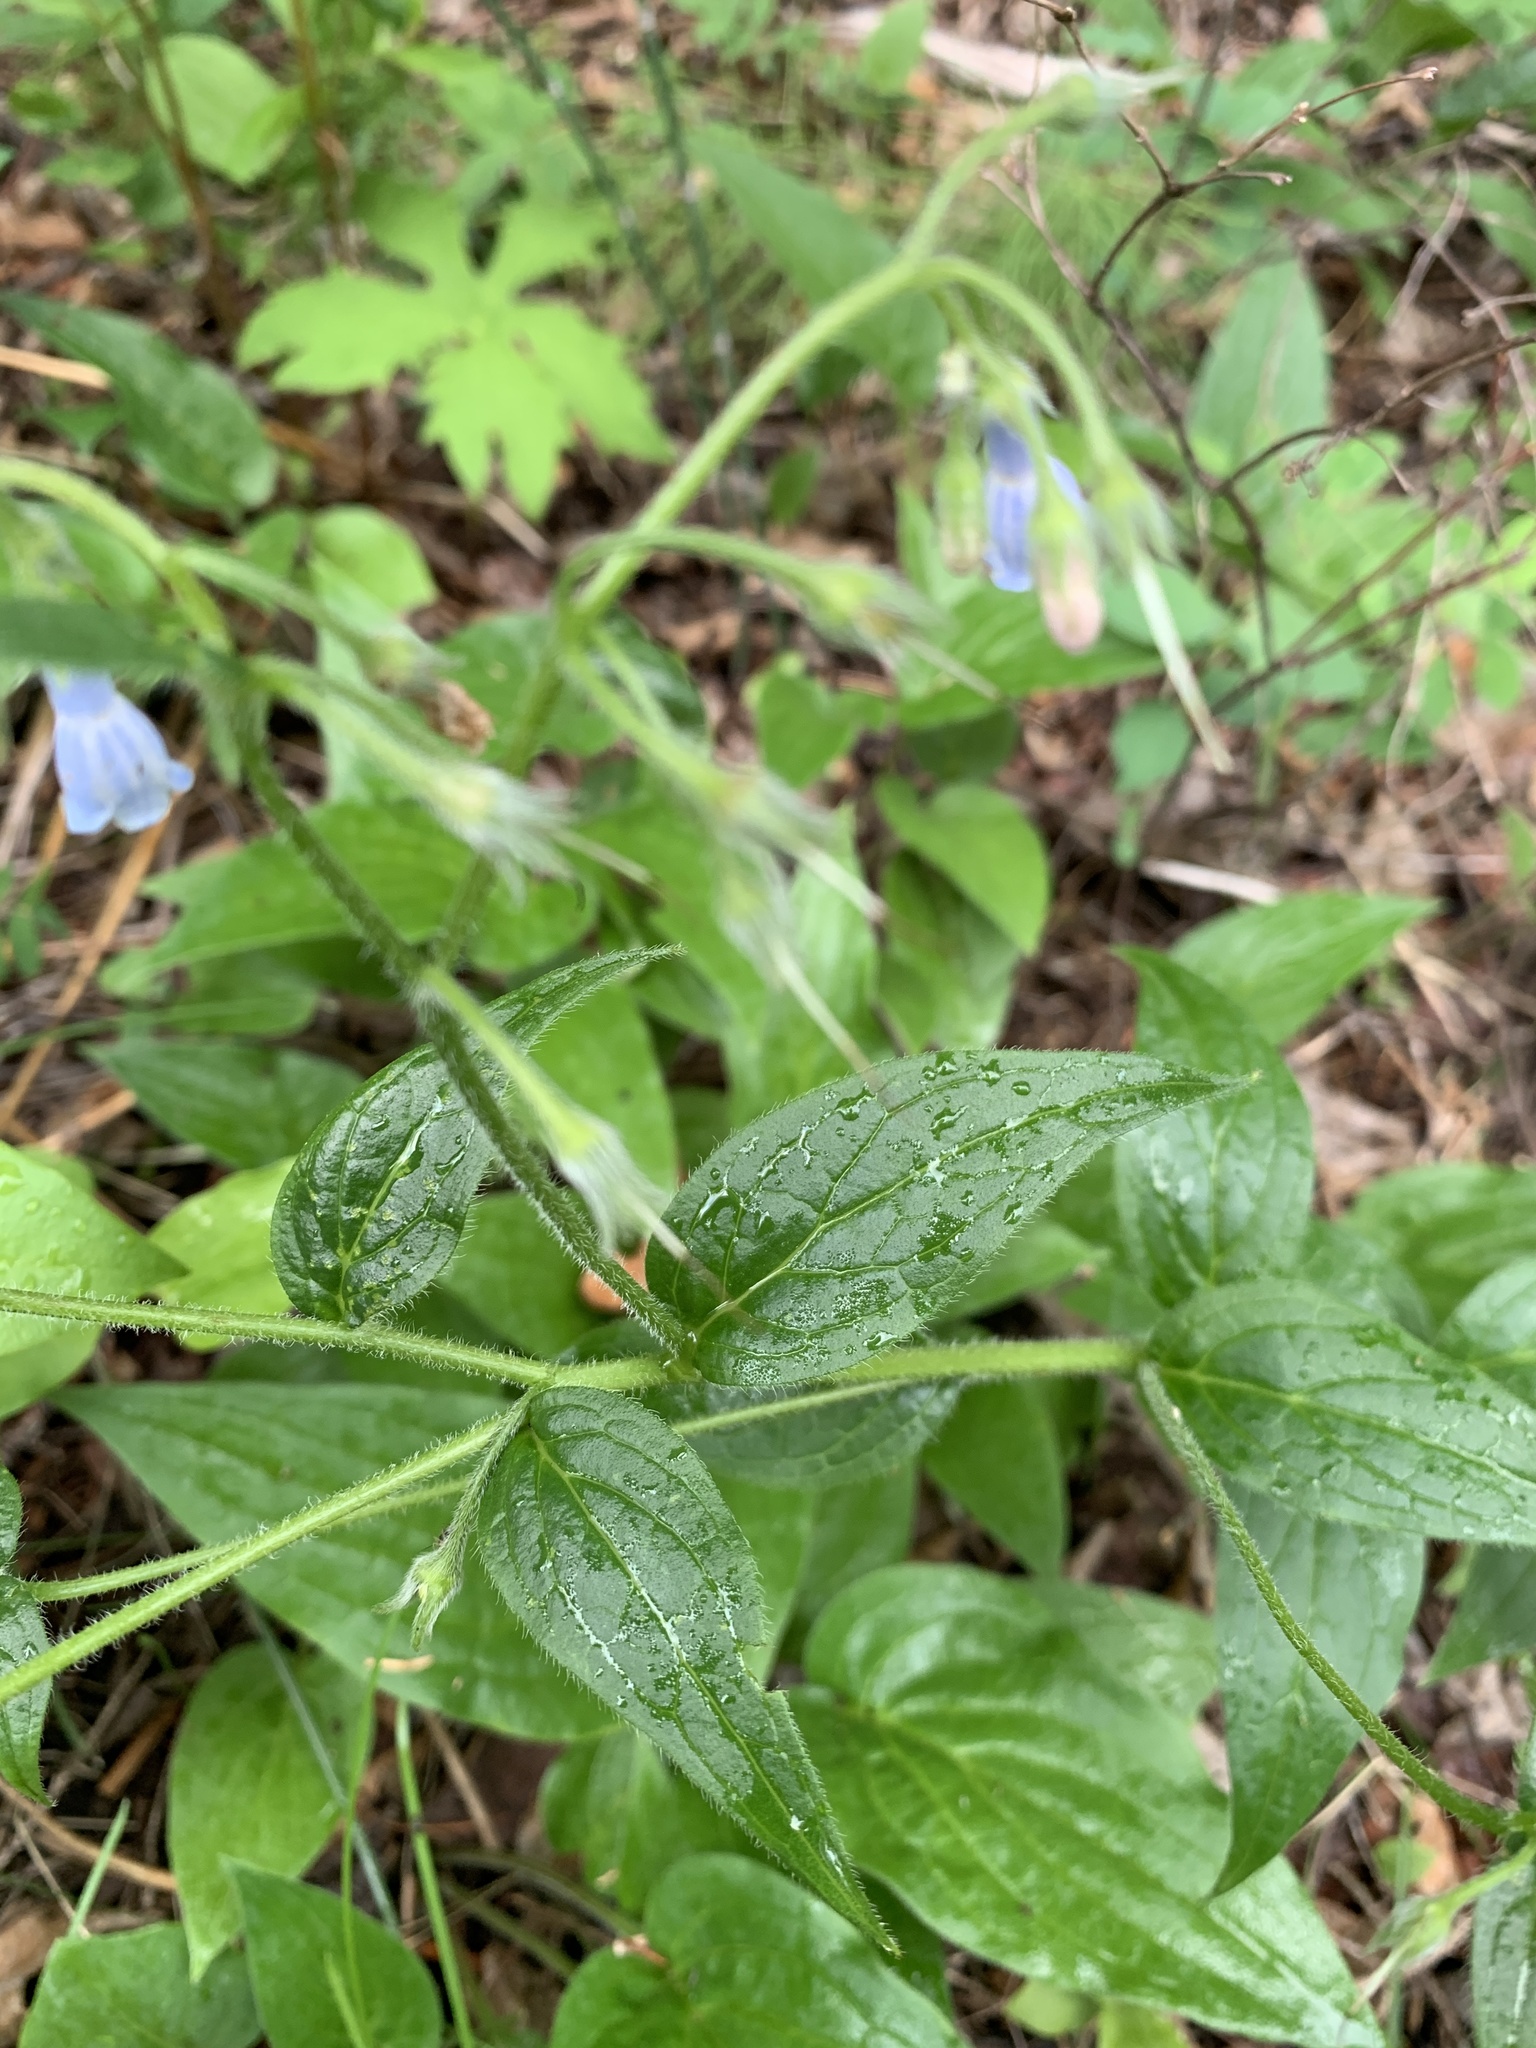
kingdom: Plantae
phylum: Tracheophyta
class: Magnoliopsida
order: Boraginales
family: Boraginaceae
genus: Mertensia
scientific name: Mertensia paniculata
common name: Panicled bluebells
